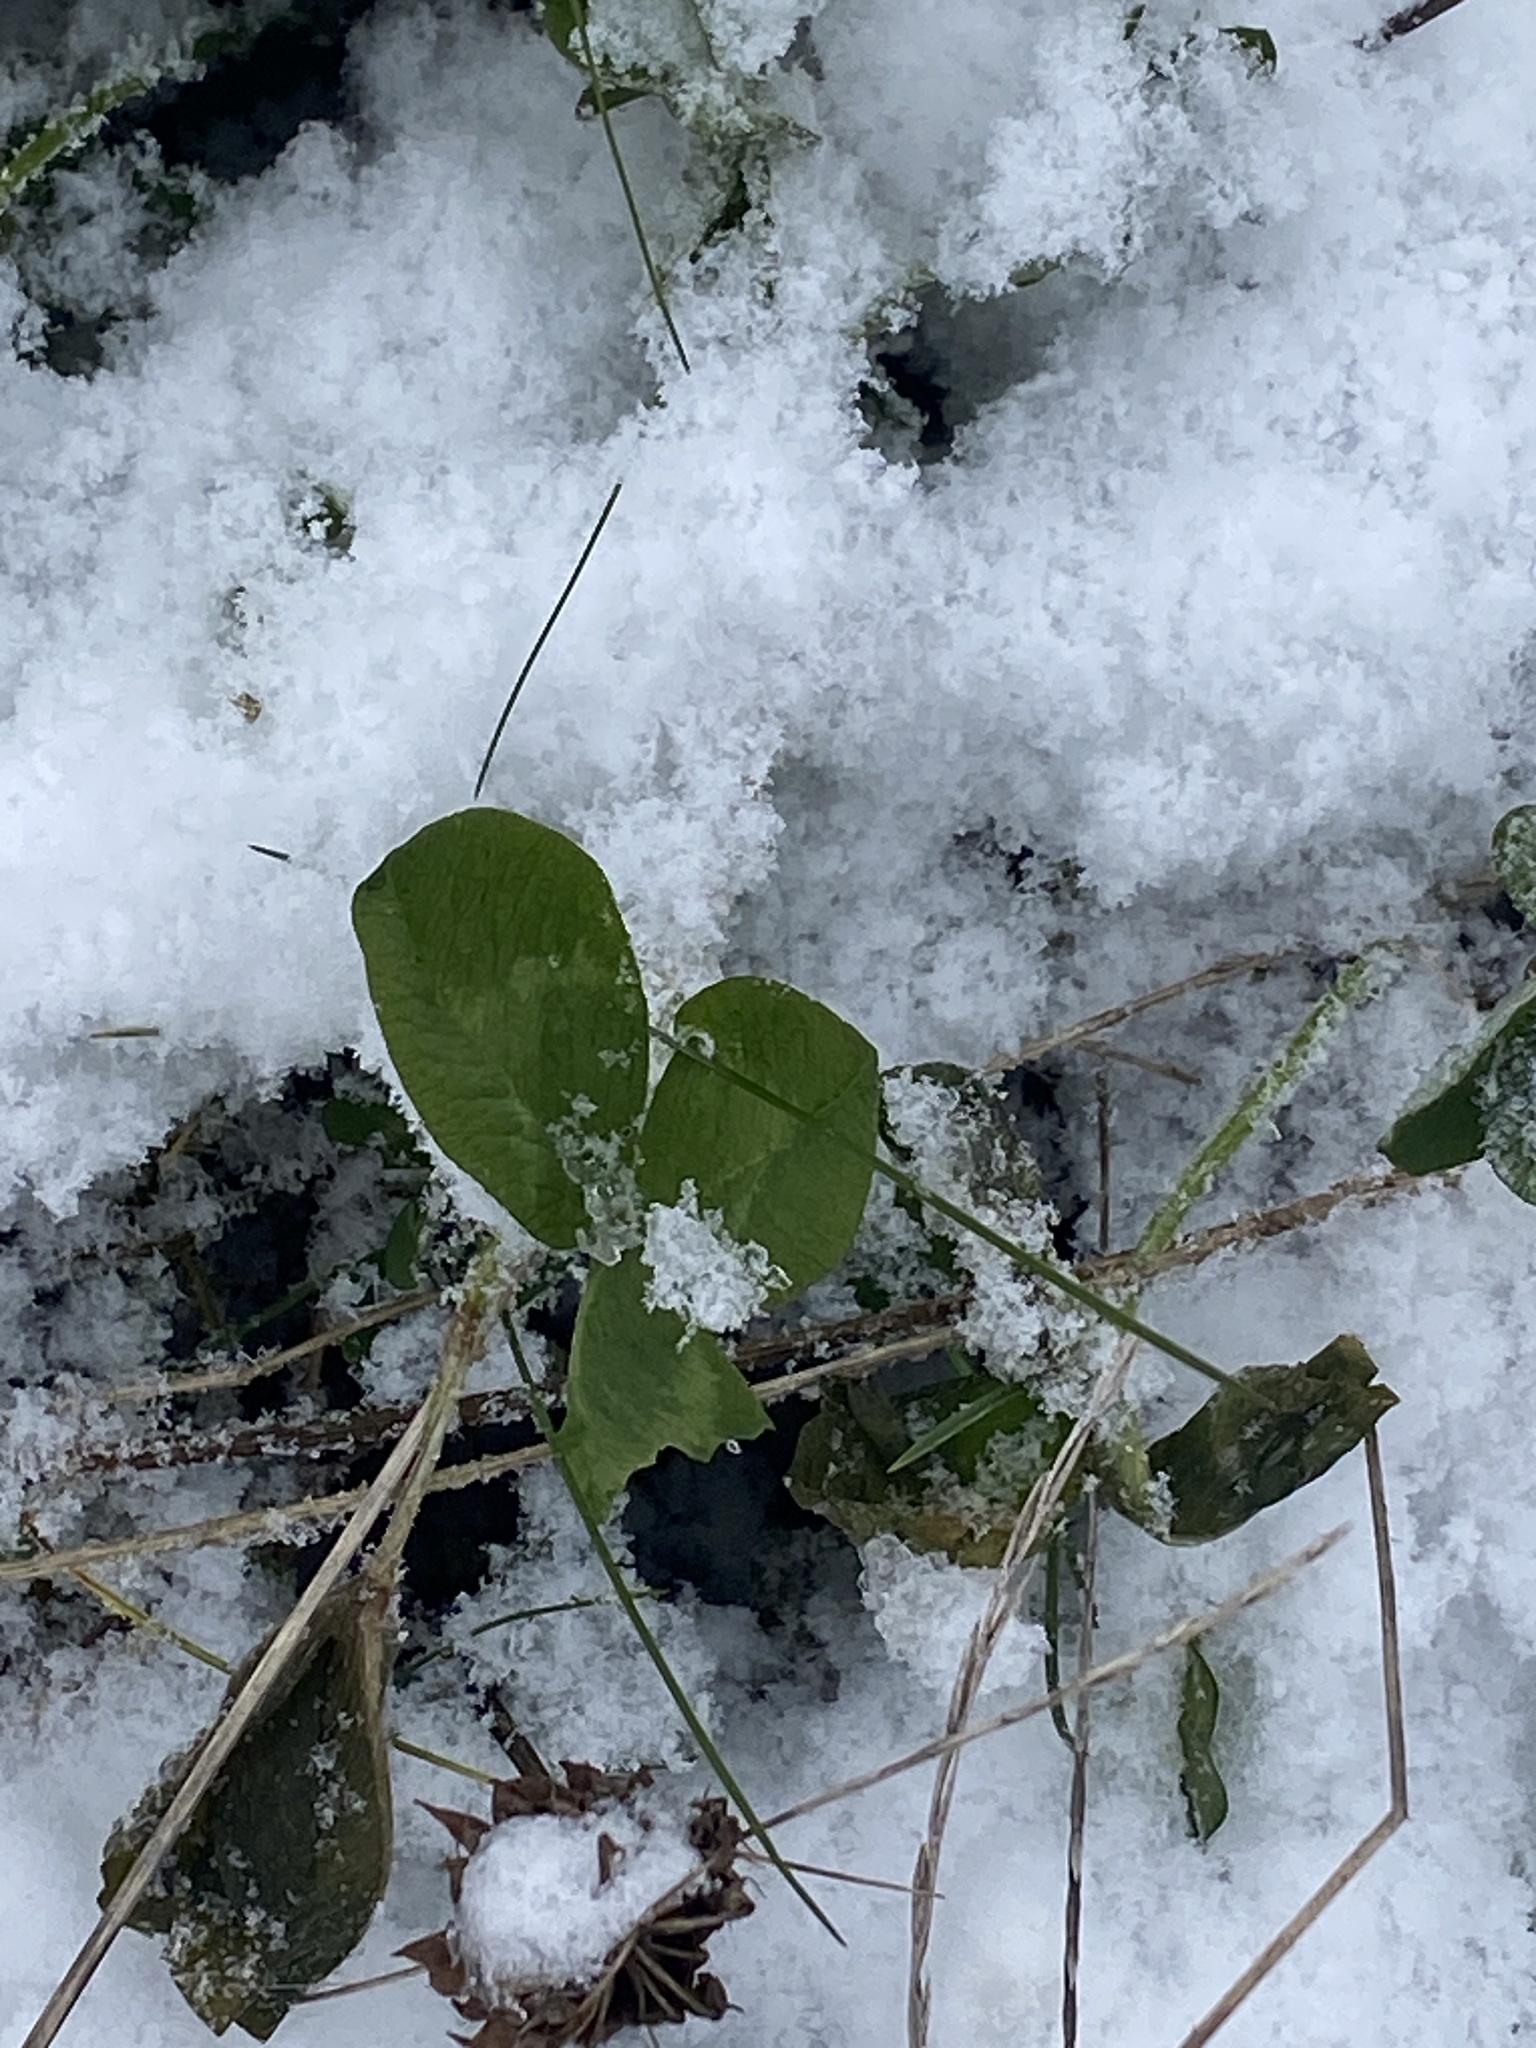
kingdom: Plantae
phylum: Tracheophyta
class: Magnoliopsida
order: Fabales
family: Fabaceae
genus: Trifolium
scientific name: Trifolium pratense
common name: Red clover
